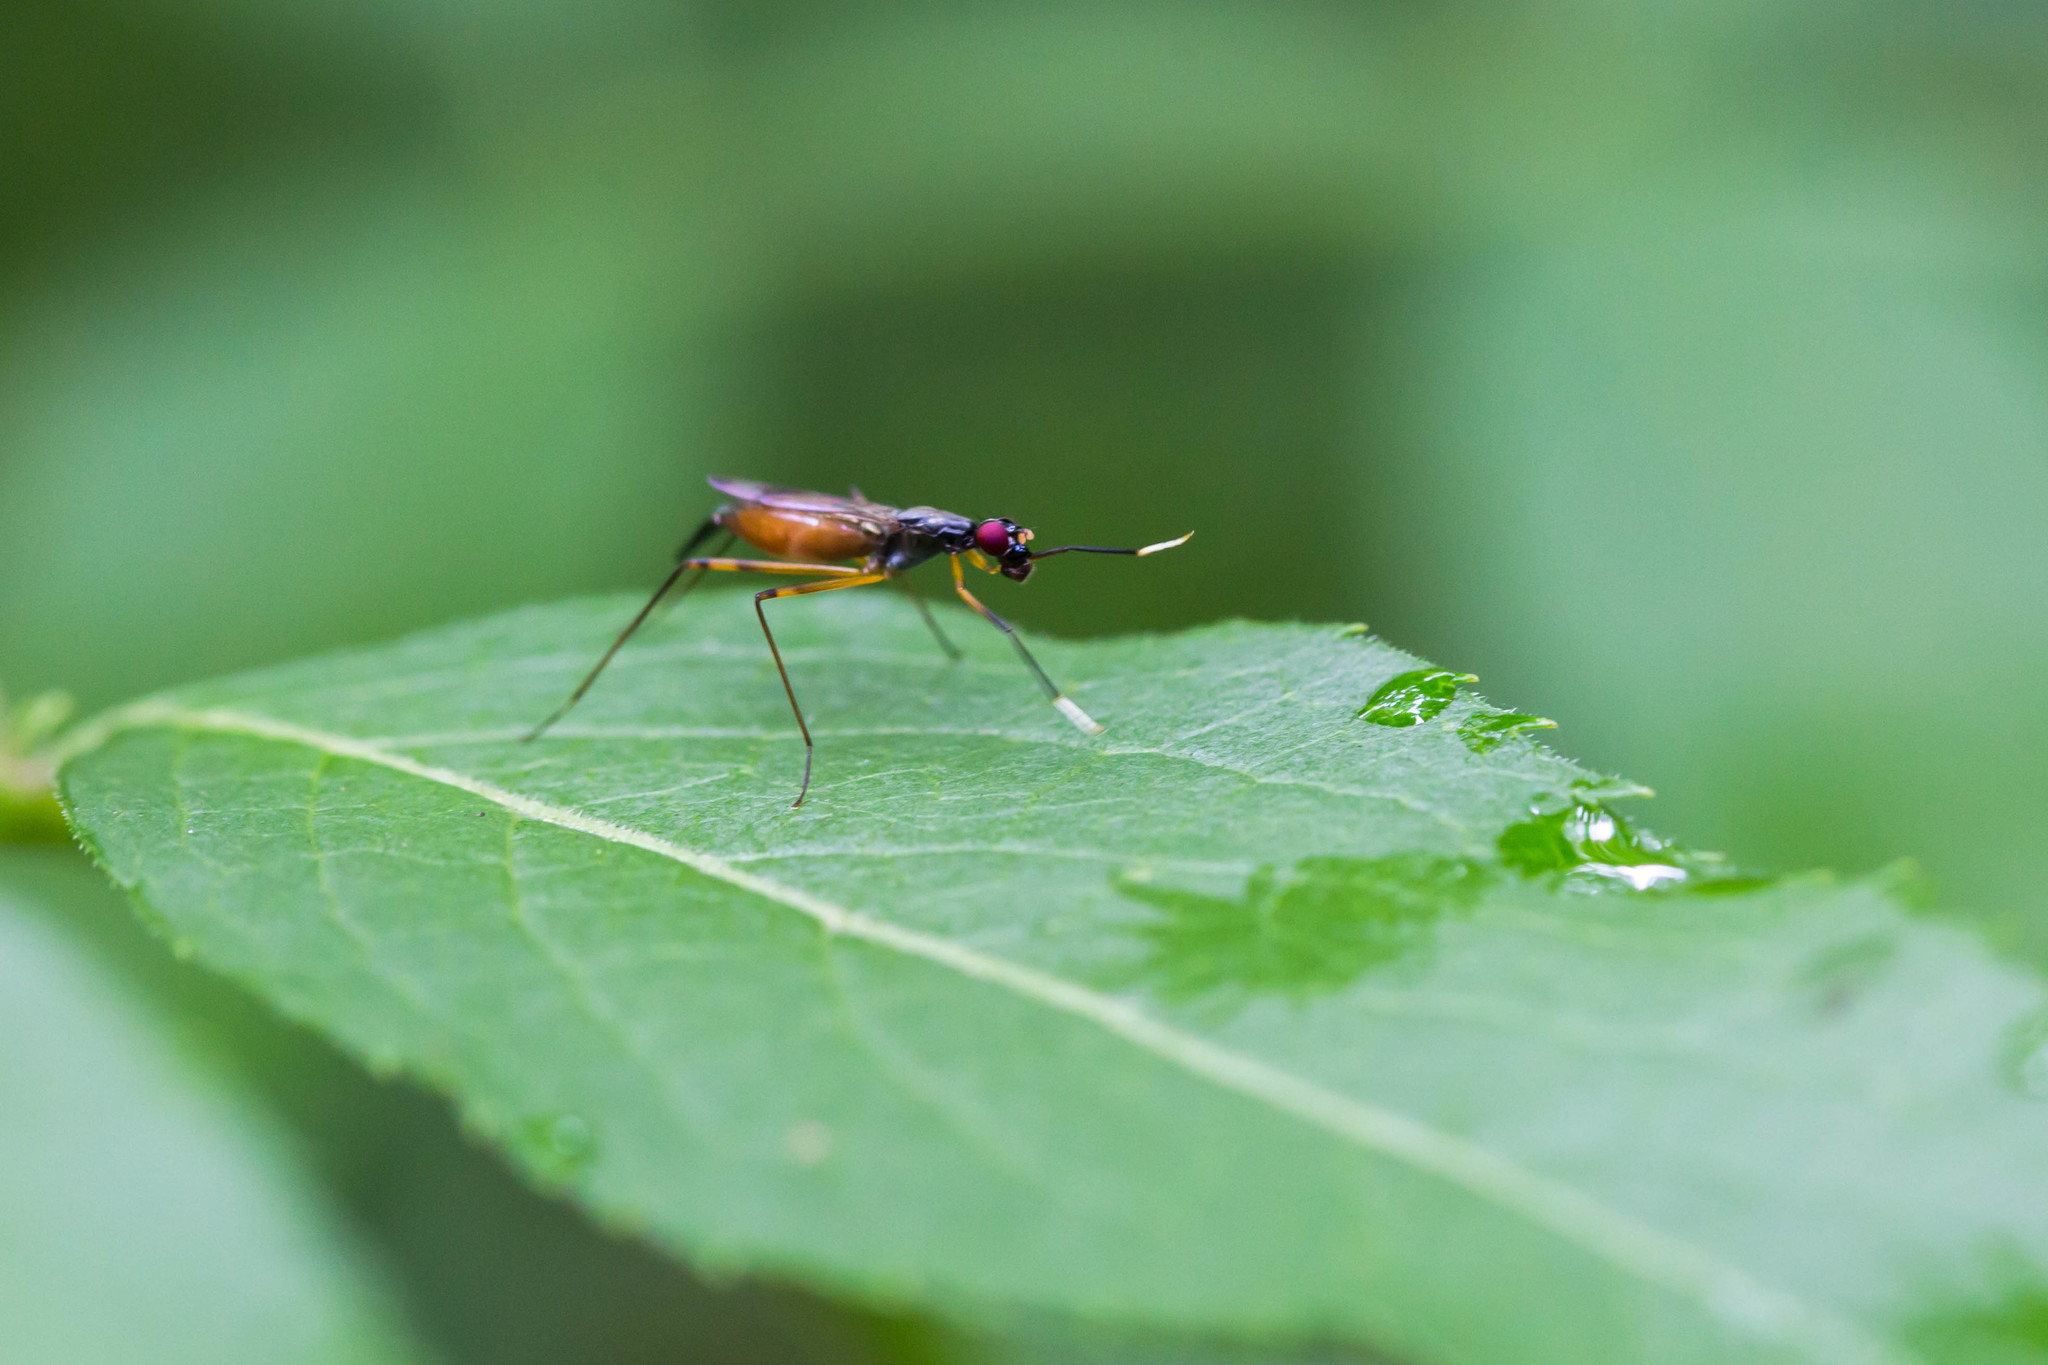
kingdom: Animalia
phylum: Arthropoda
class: Insecta
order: Diptera
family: Micropezidae
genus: Rainieria
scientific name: Rainieria antennaepes
